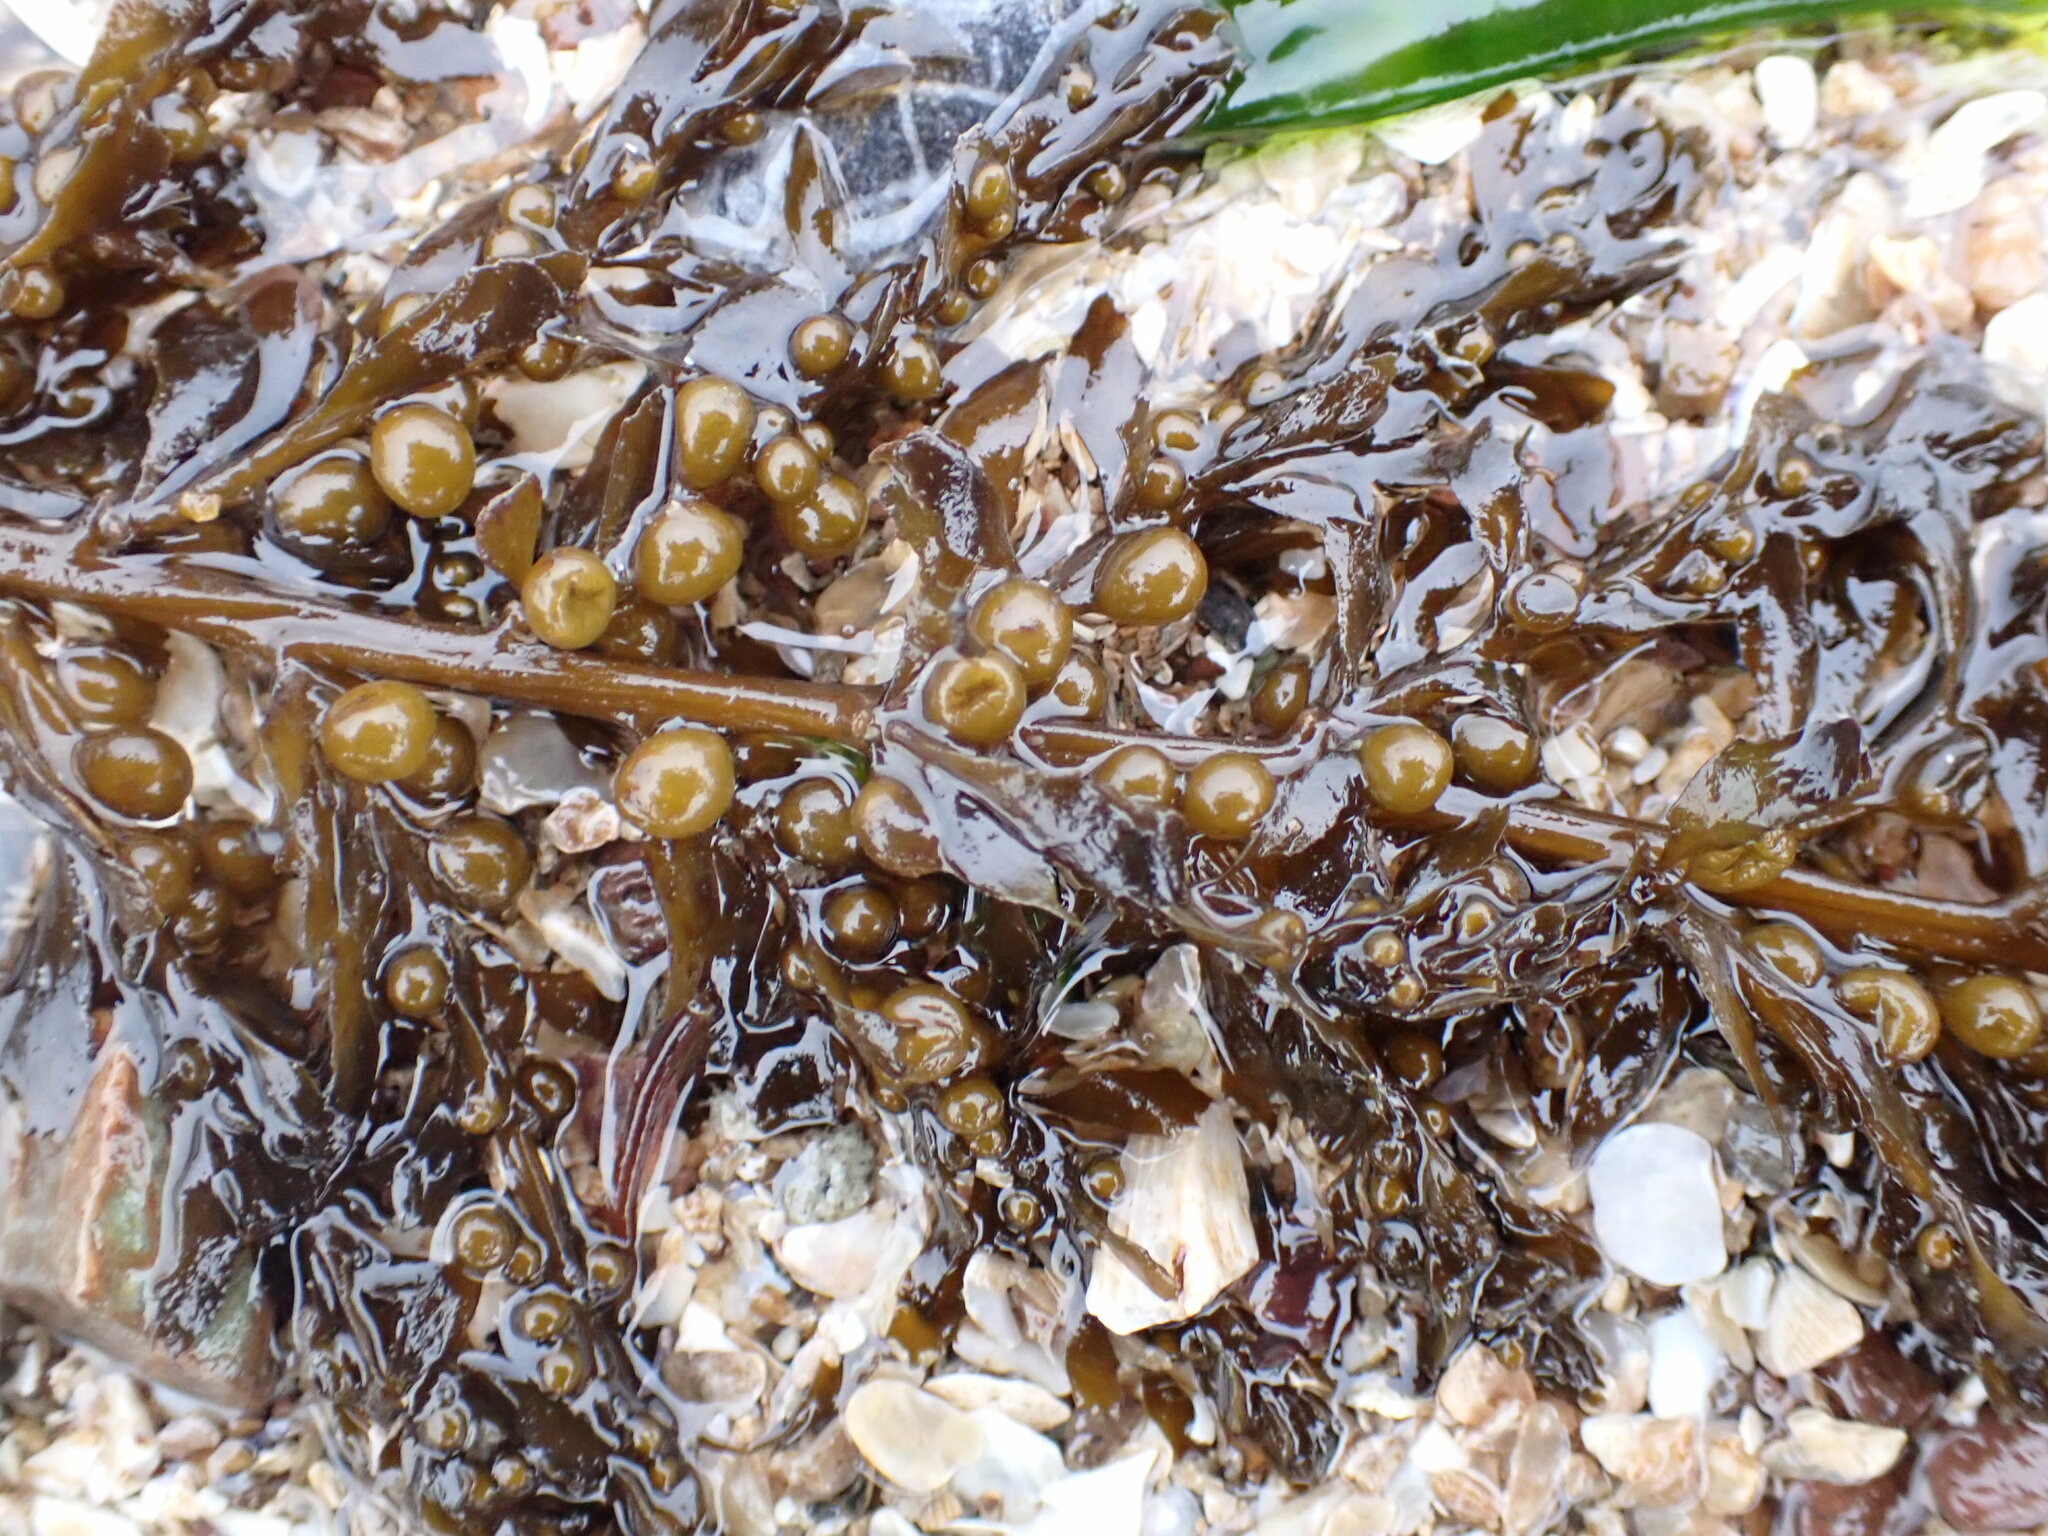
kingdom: Chromista
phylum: Ochrophyta
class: Phaeophyceae
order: Fucales
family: Sargassaceae
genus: Sargassum
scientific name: Sargassum muticum
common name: Japweed
